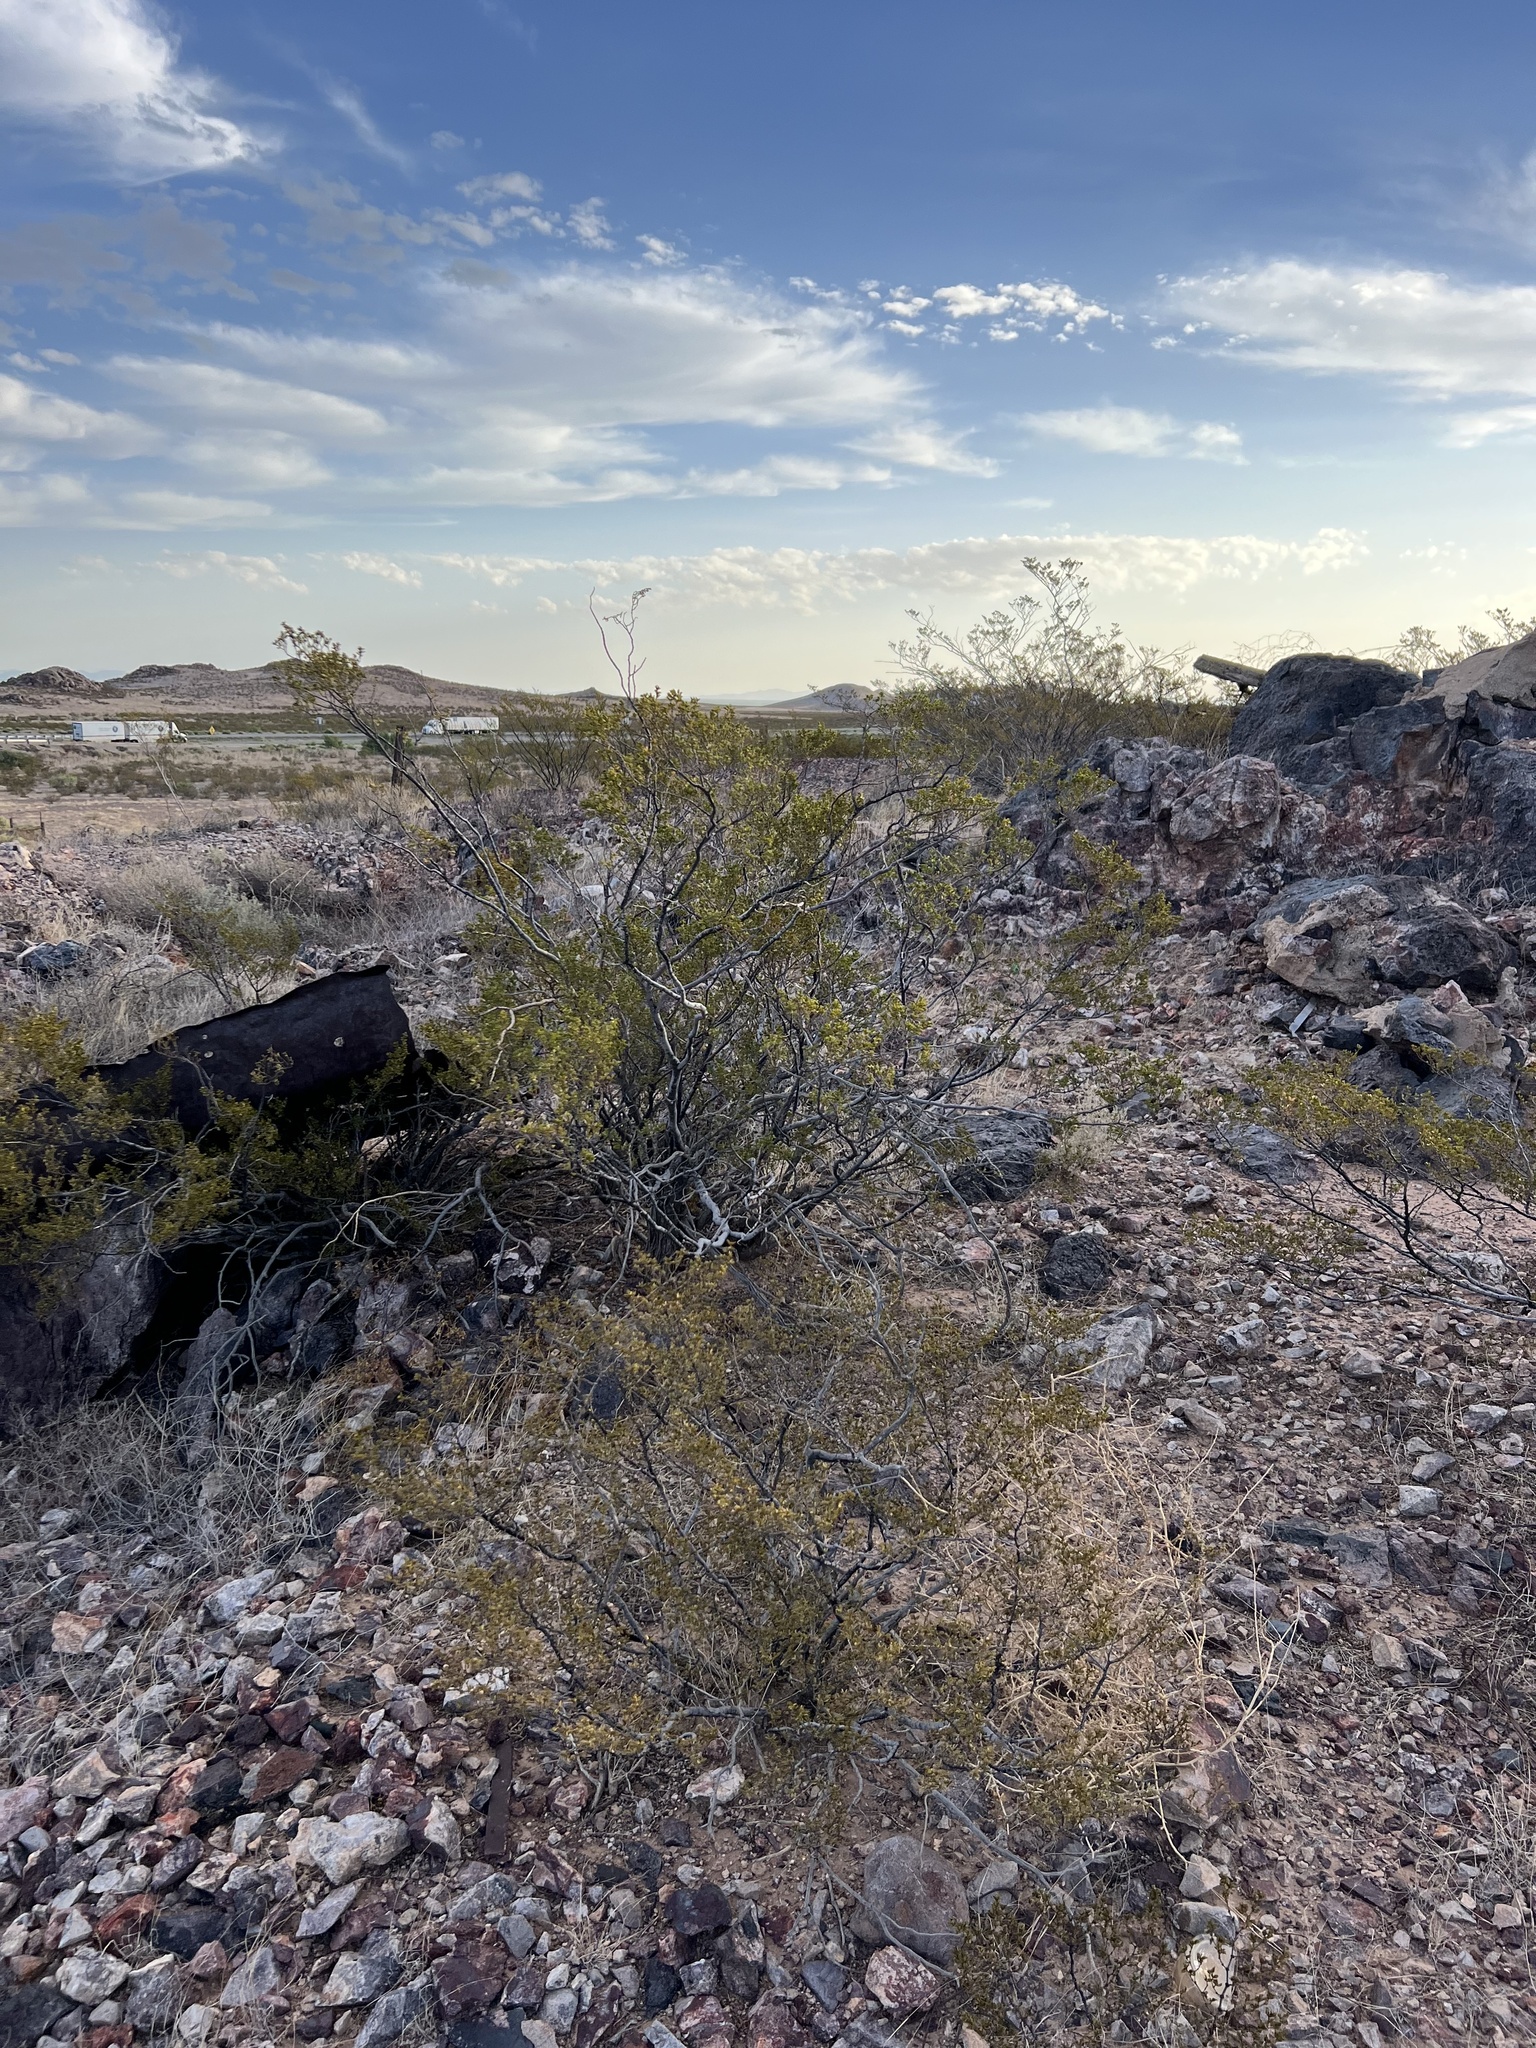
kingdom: Plantae
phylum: Tracheophyta
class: Magnoliopsida
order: Zygophyllales
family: Zygophyllaceae
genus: Larrea
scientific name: Larrea tridentata
